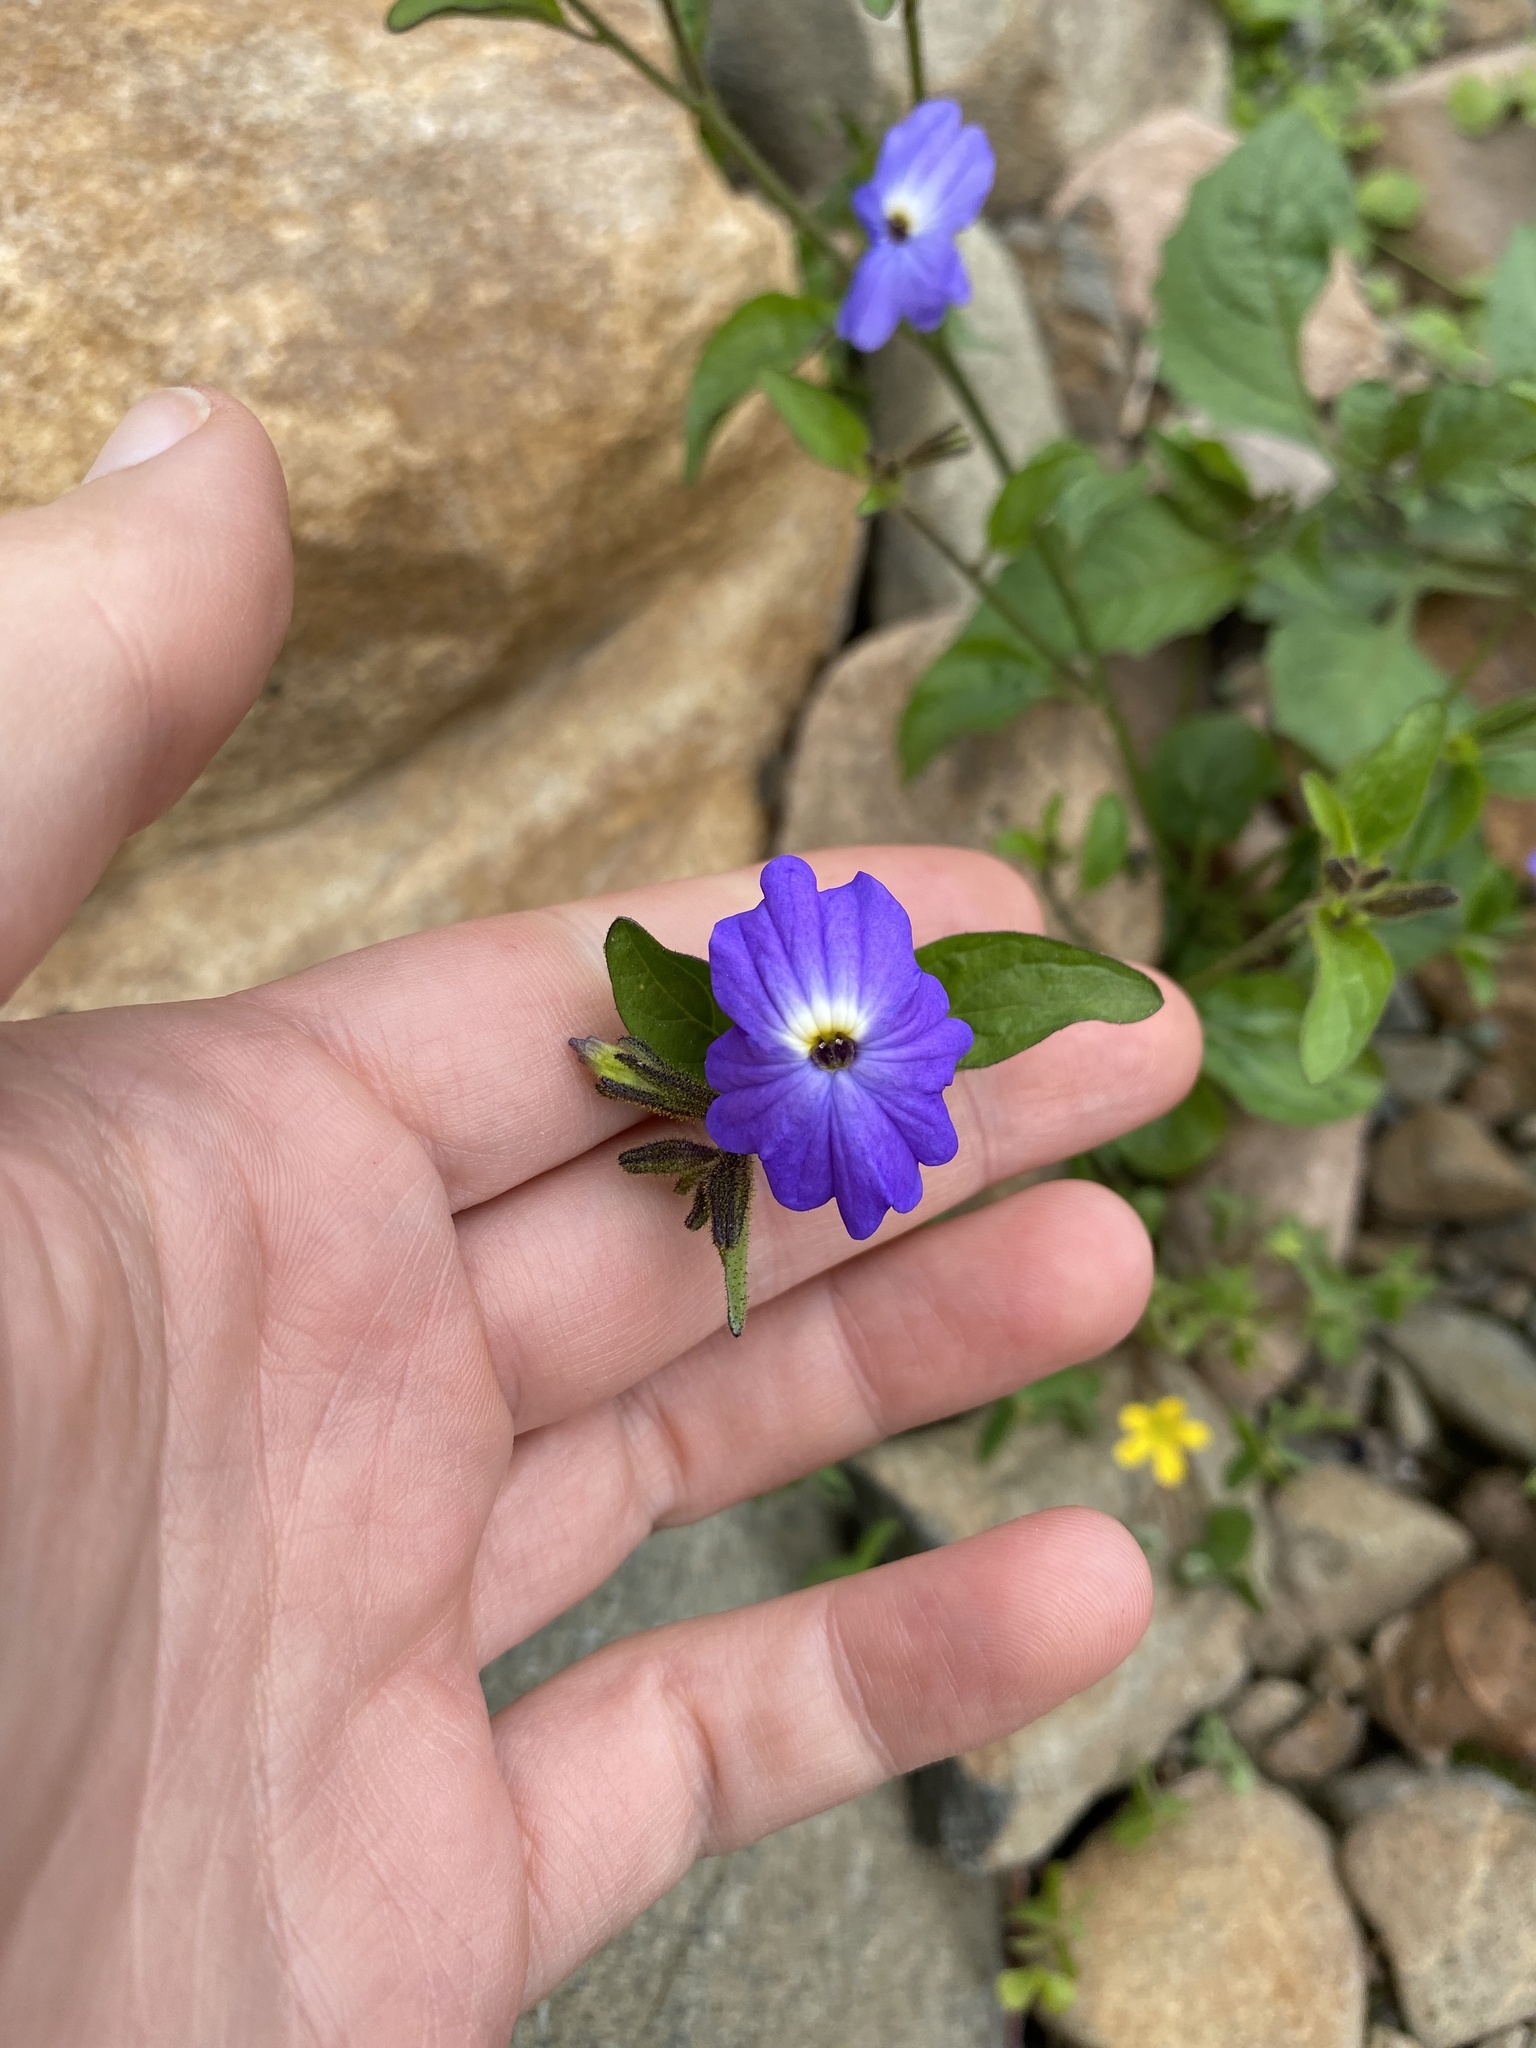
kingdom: Plantae
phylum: Tracheophyta
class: Magnoliopsida
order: Solanales
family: Solanaceae
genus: Browallia
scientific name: Browallia americana
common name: Jamaican forget-me-not
